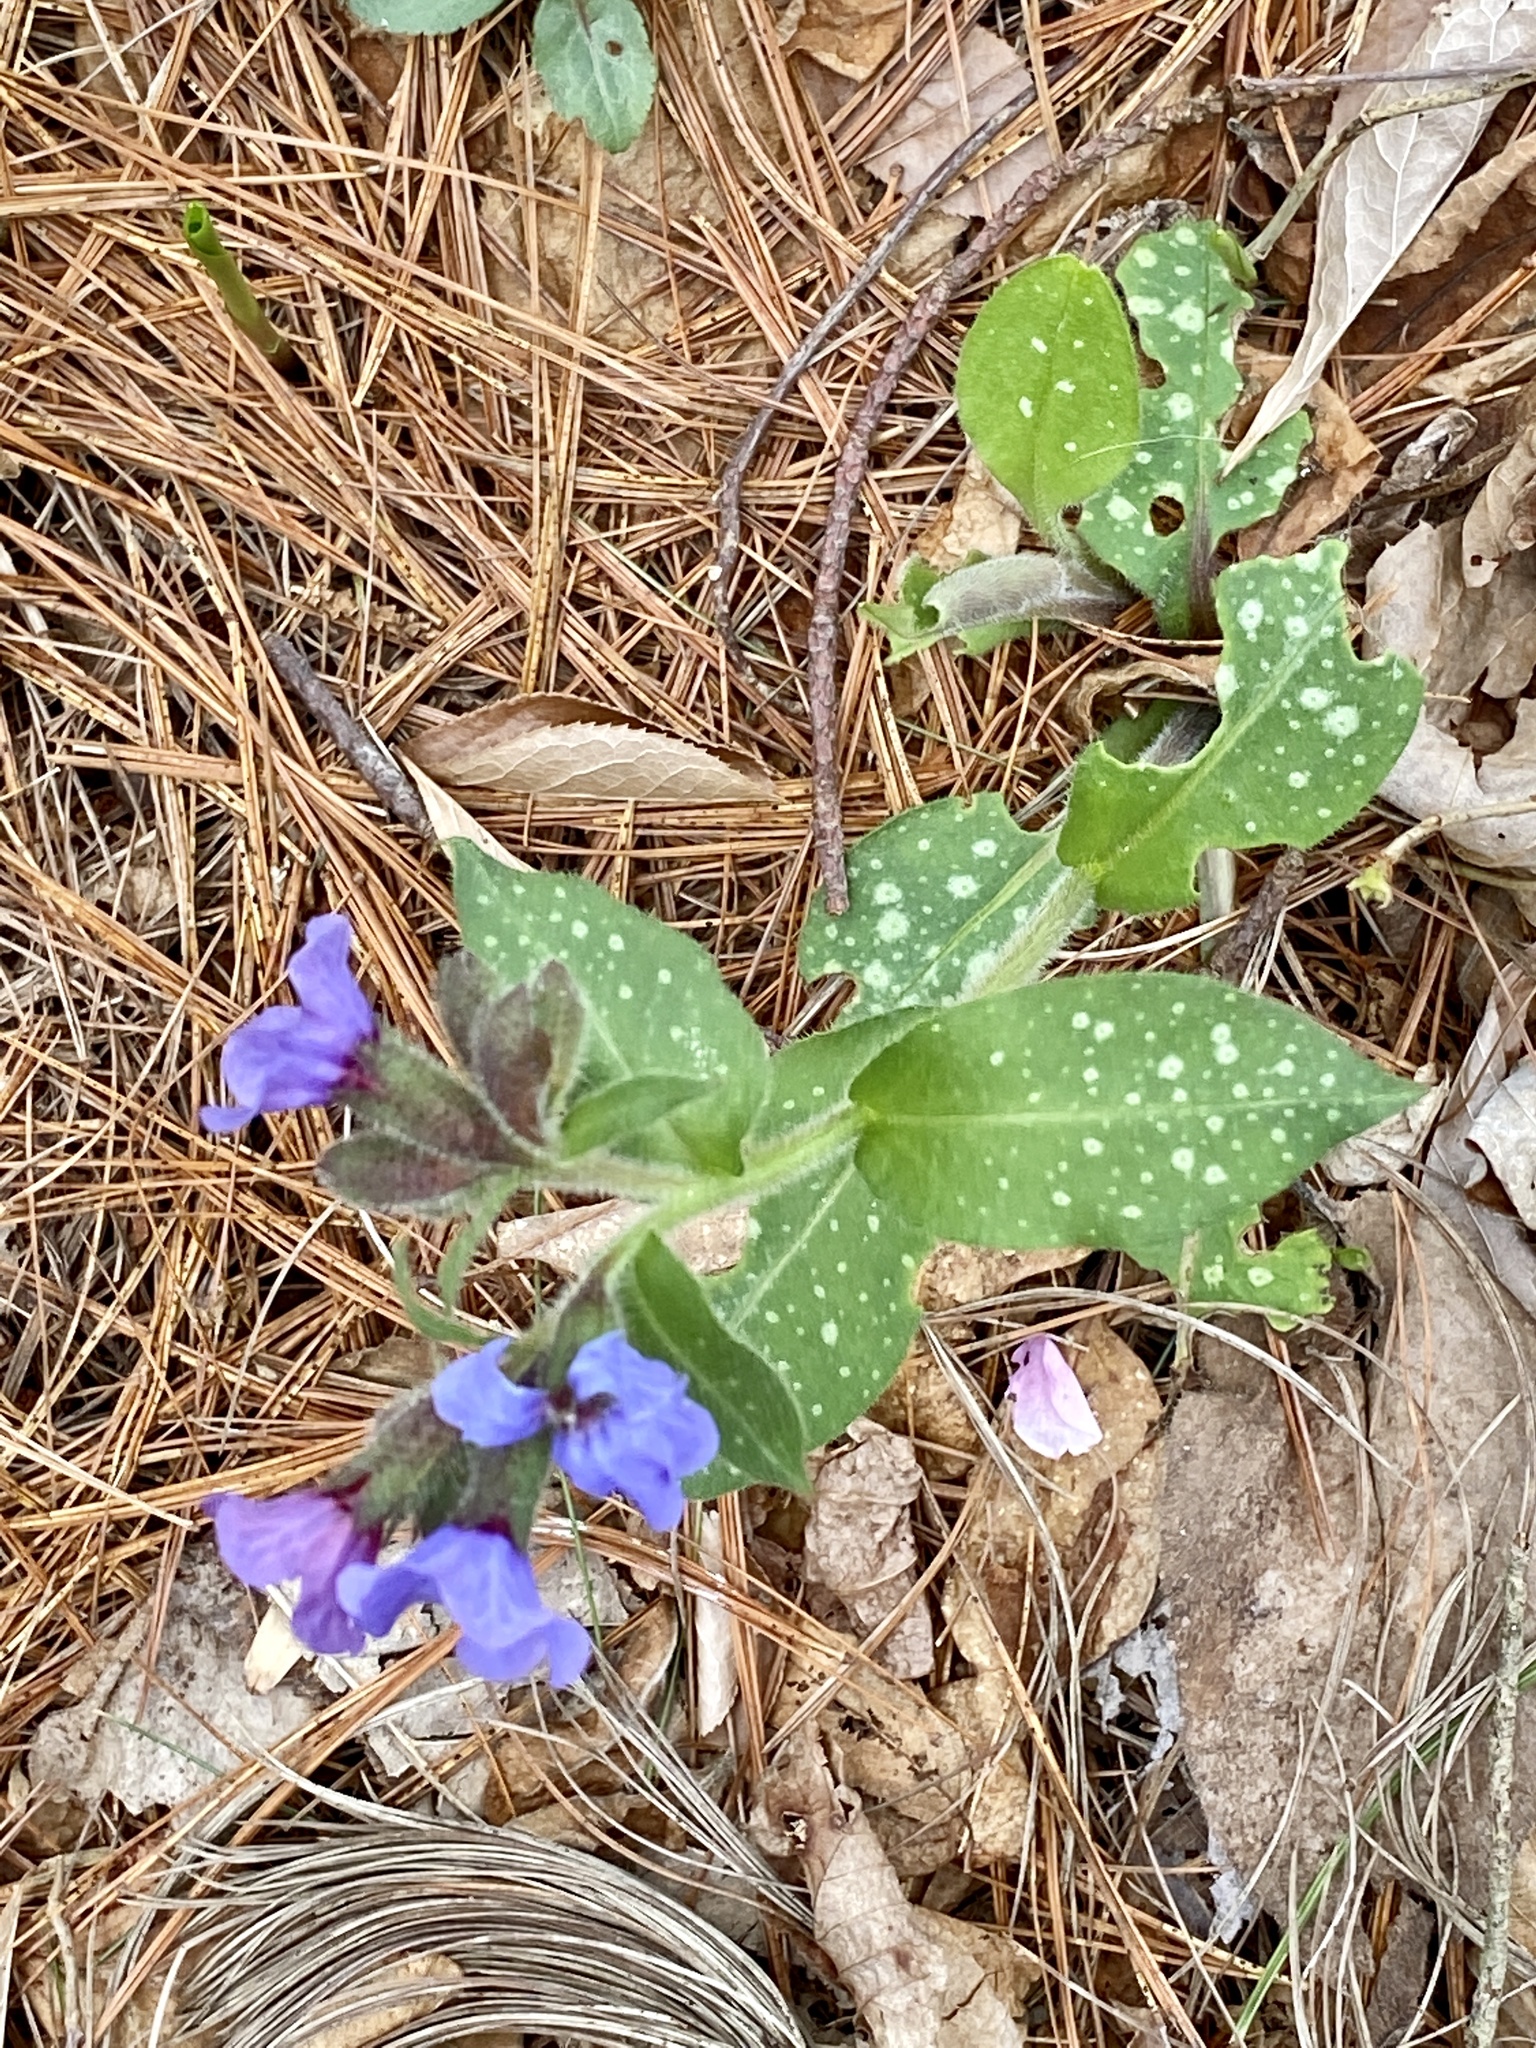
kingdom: Plantae
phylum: Tracheophyta
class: Magnoliopsida
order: Boraginales
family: Boraginaceae
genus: Pulmonaria
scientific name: Pulmonaria officinalis
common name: Lungwort
